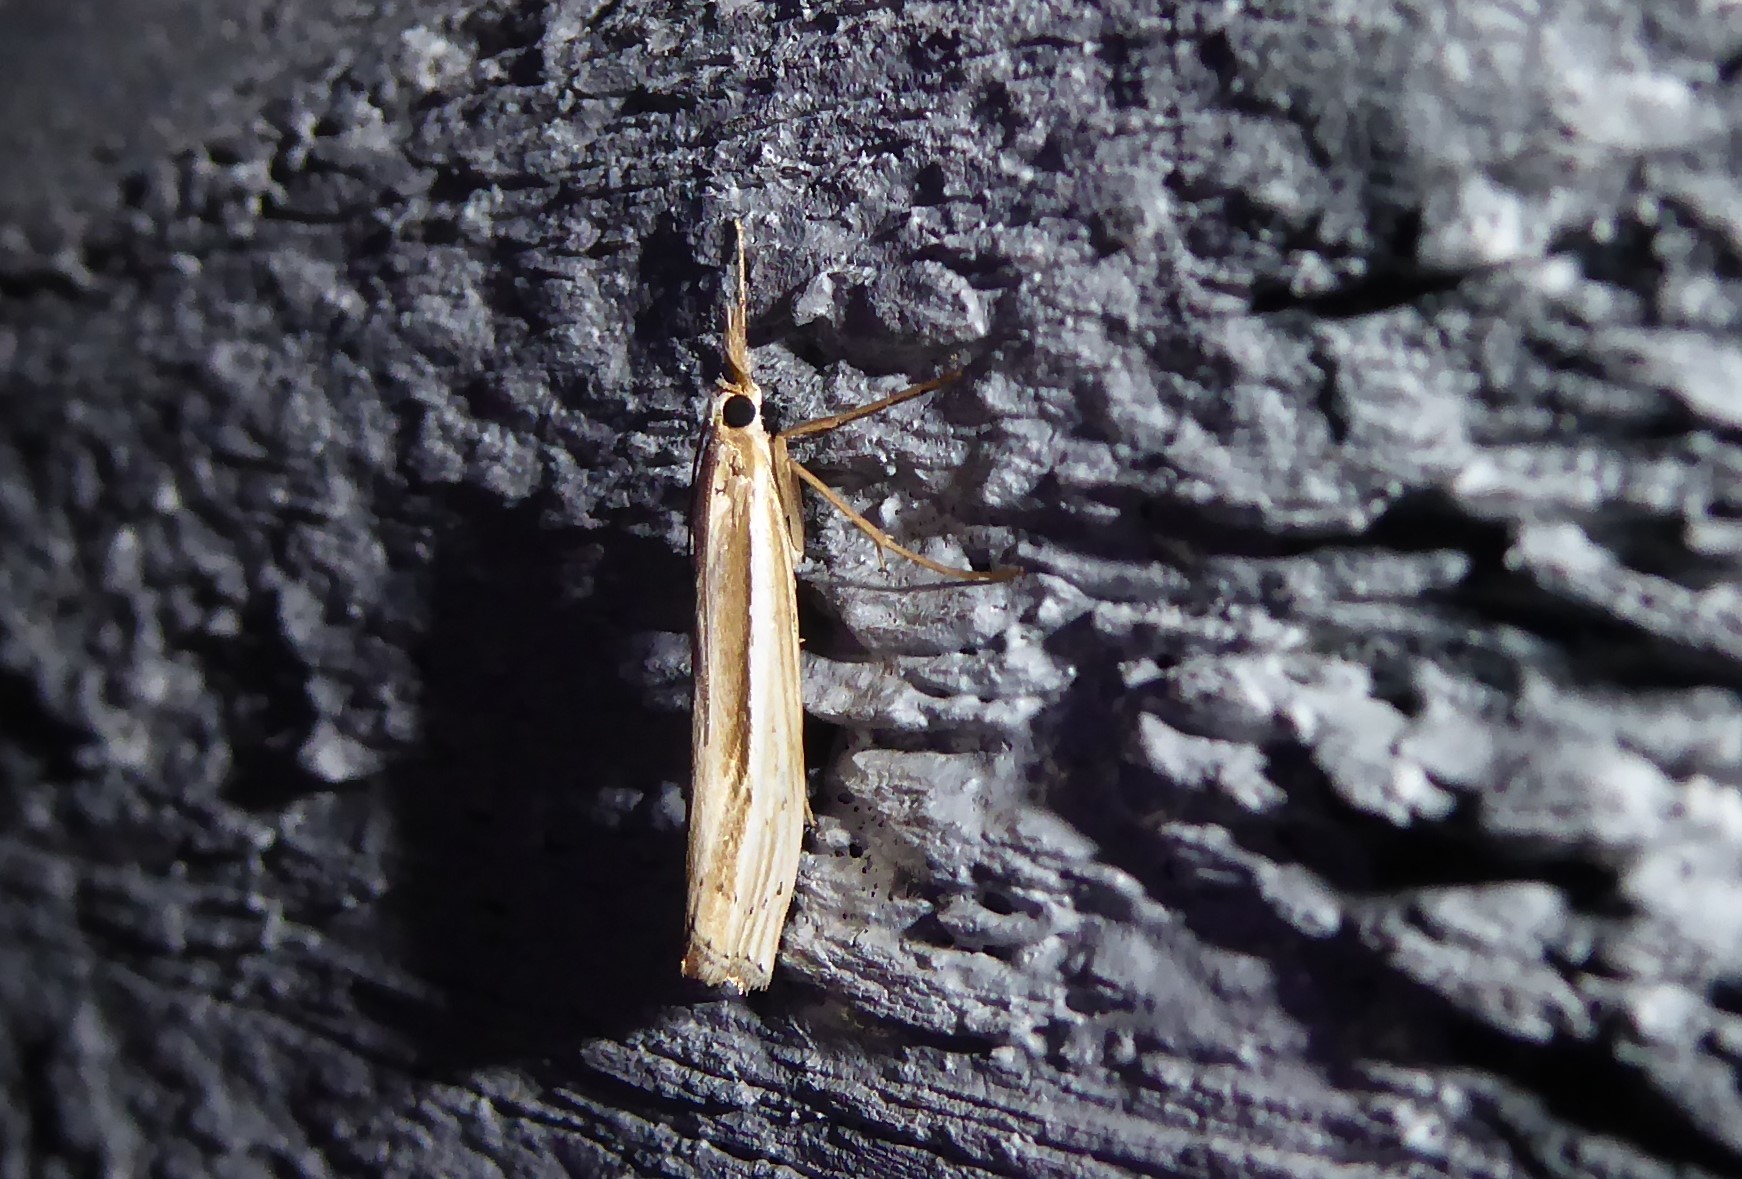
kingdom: Animalia
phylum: Arthropoda
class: Insecta
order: Lepidoptera
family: Crambidae
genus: Orocrambus
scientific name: Orocrambus ramosellus
